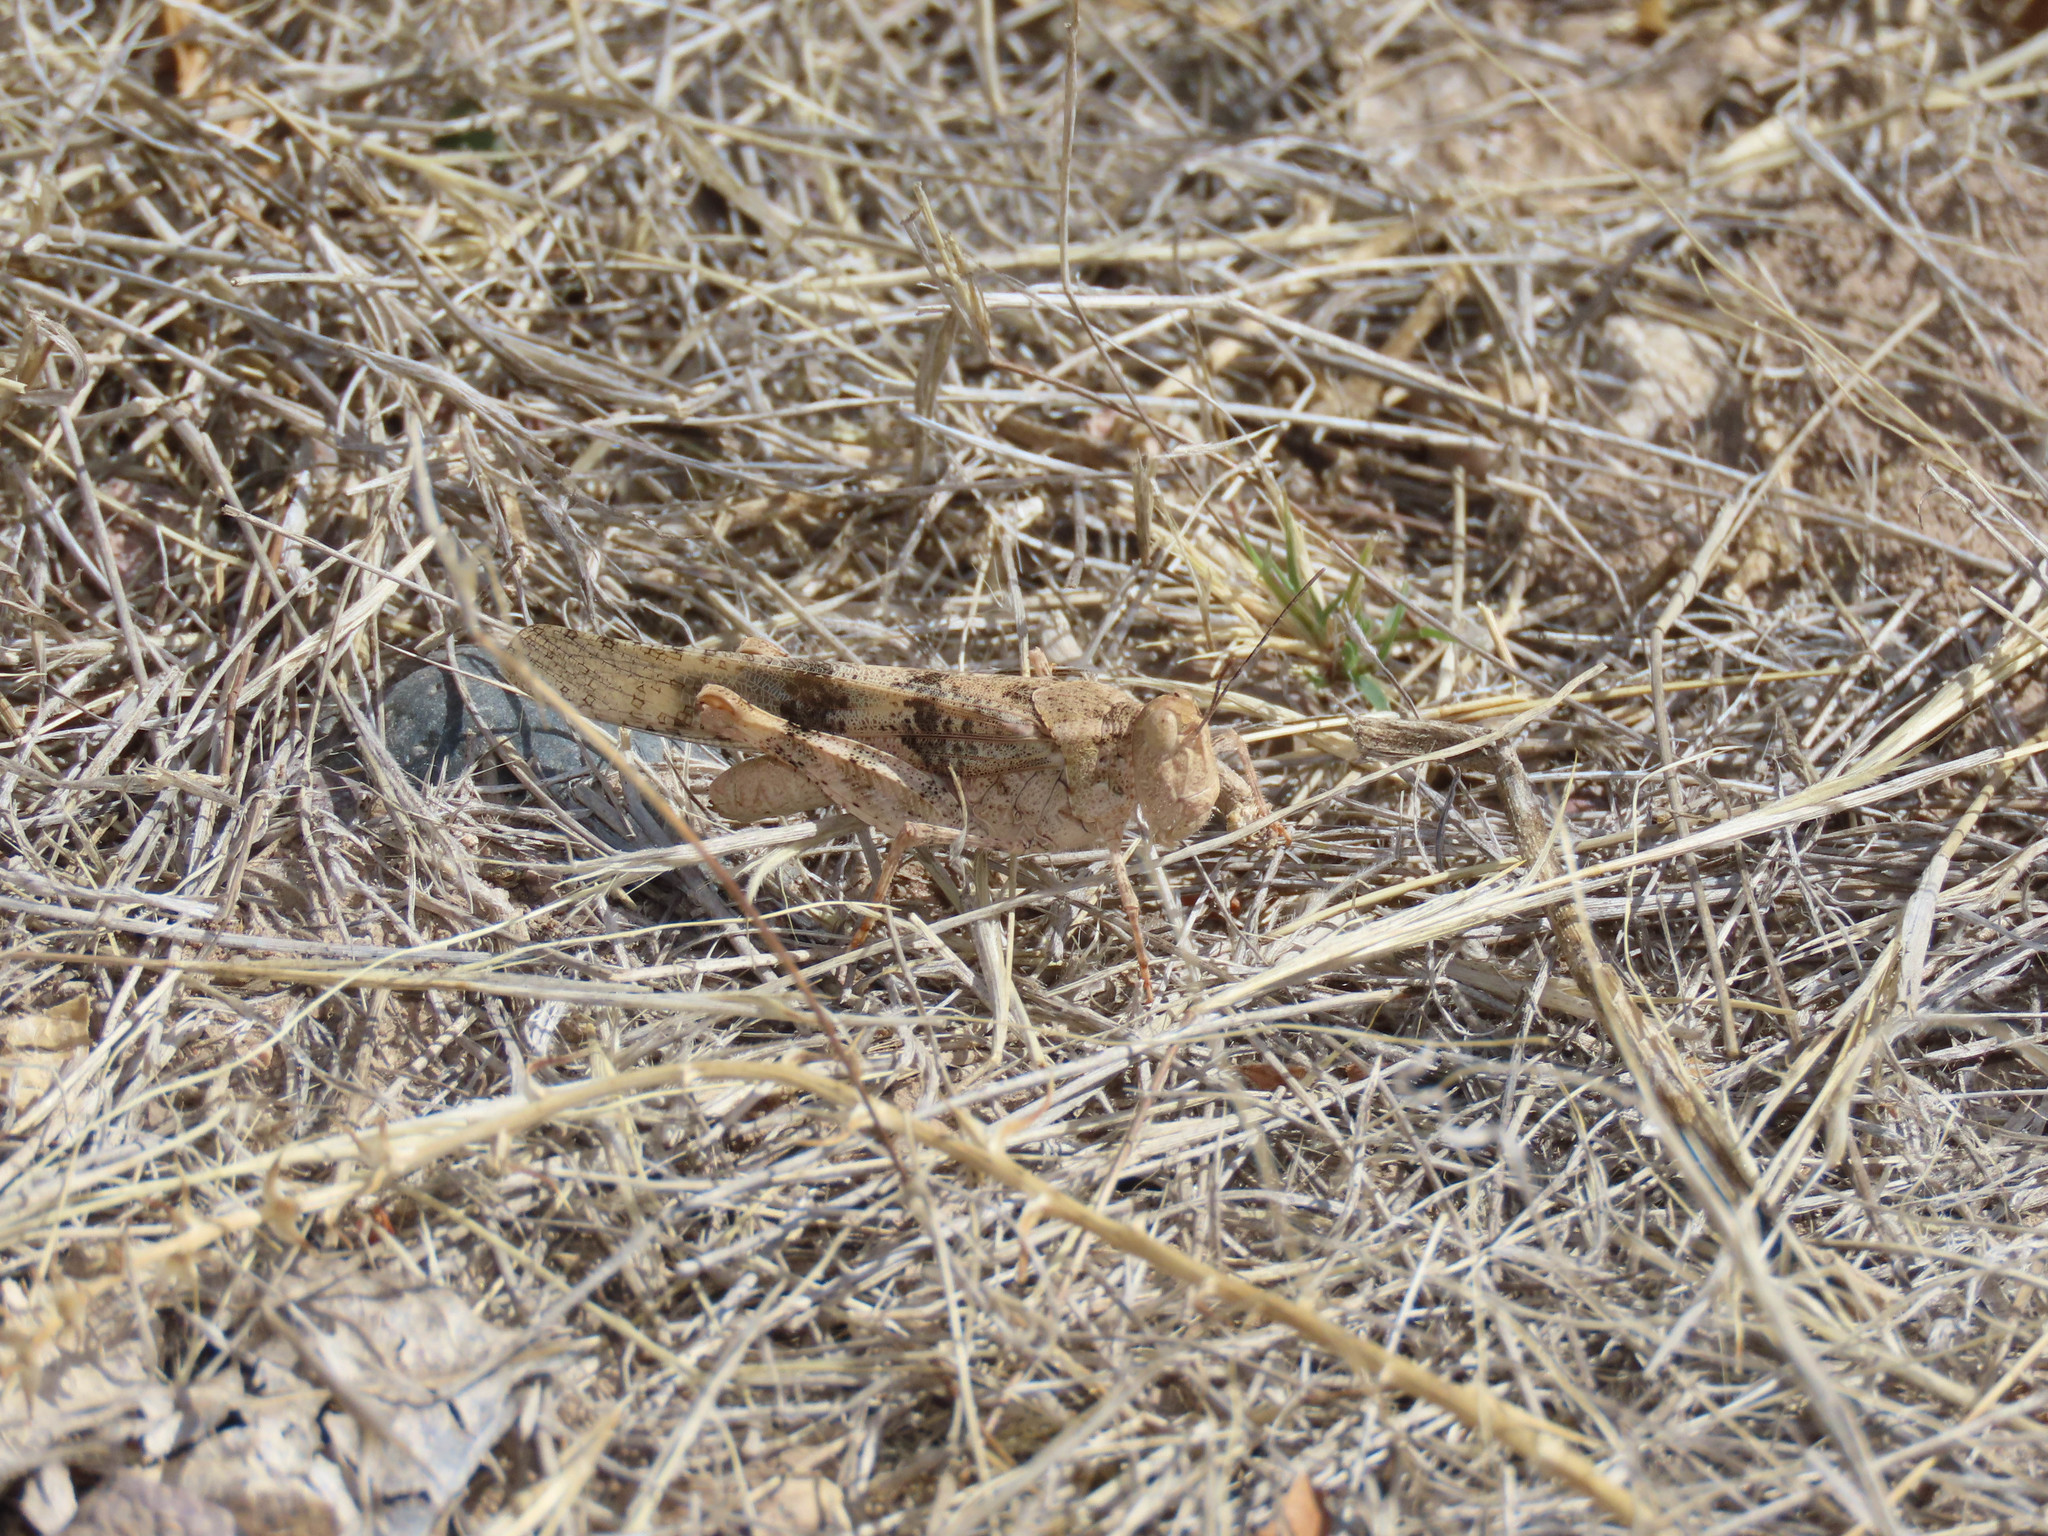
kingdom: Animalia
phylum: Arthropoda
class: Insecta
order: Orthoptera
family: Acrididae
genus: Trimerotropis
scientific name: Trimerotropis pallidipennis
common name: Pallid-winged grasshopper
